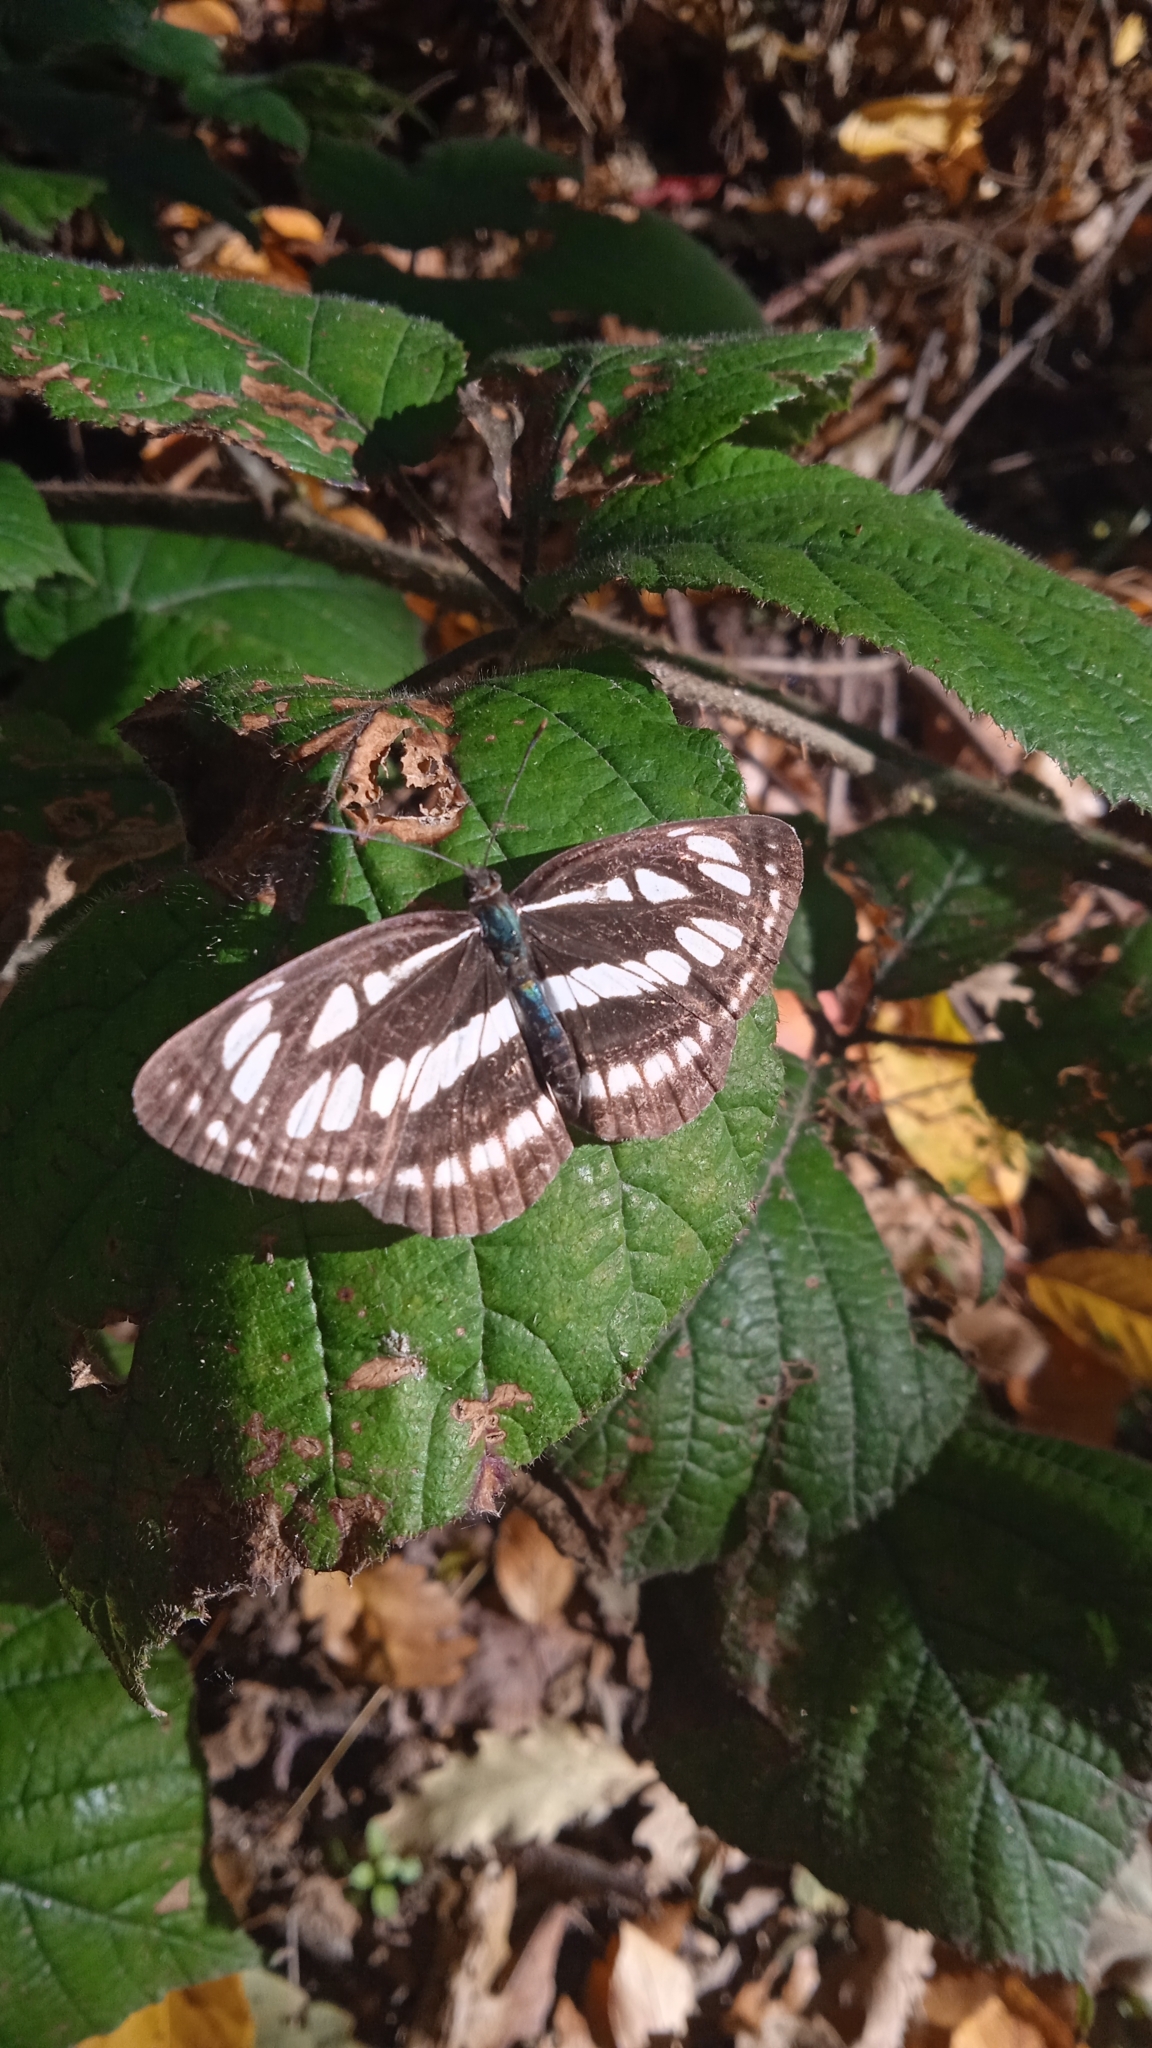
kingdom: Animalia
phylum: Arthropoda
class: Insecta
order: Lepidoptera
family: Nymphalidae
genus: Neptis
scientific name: Neptis sappho
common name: Common glider
